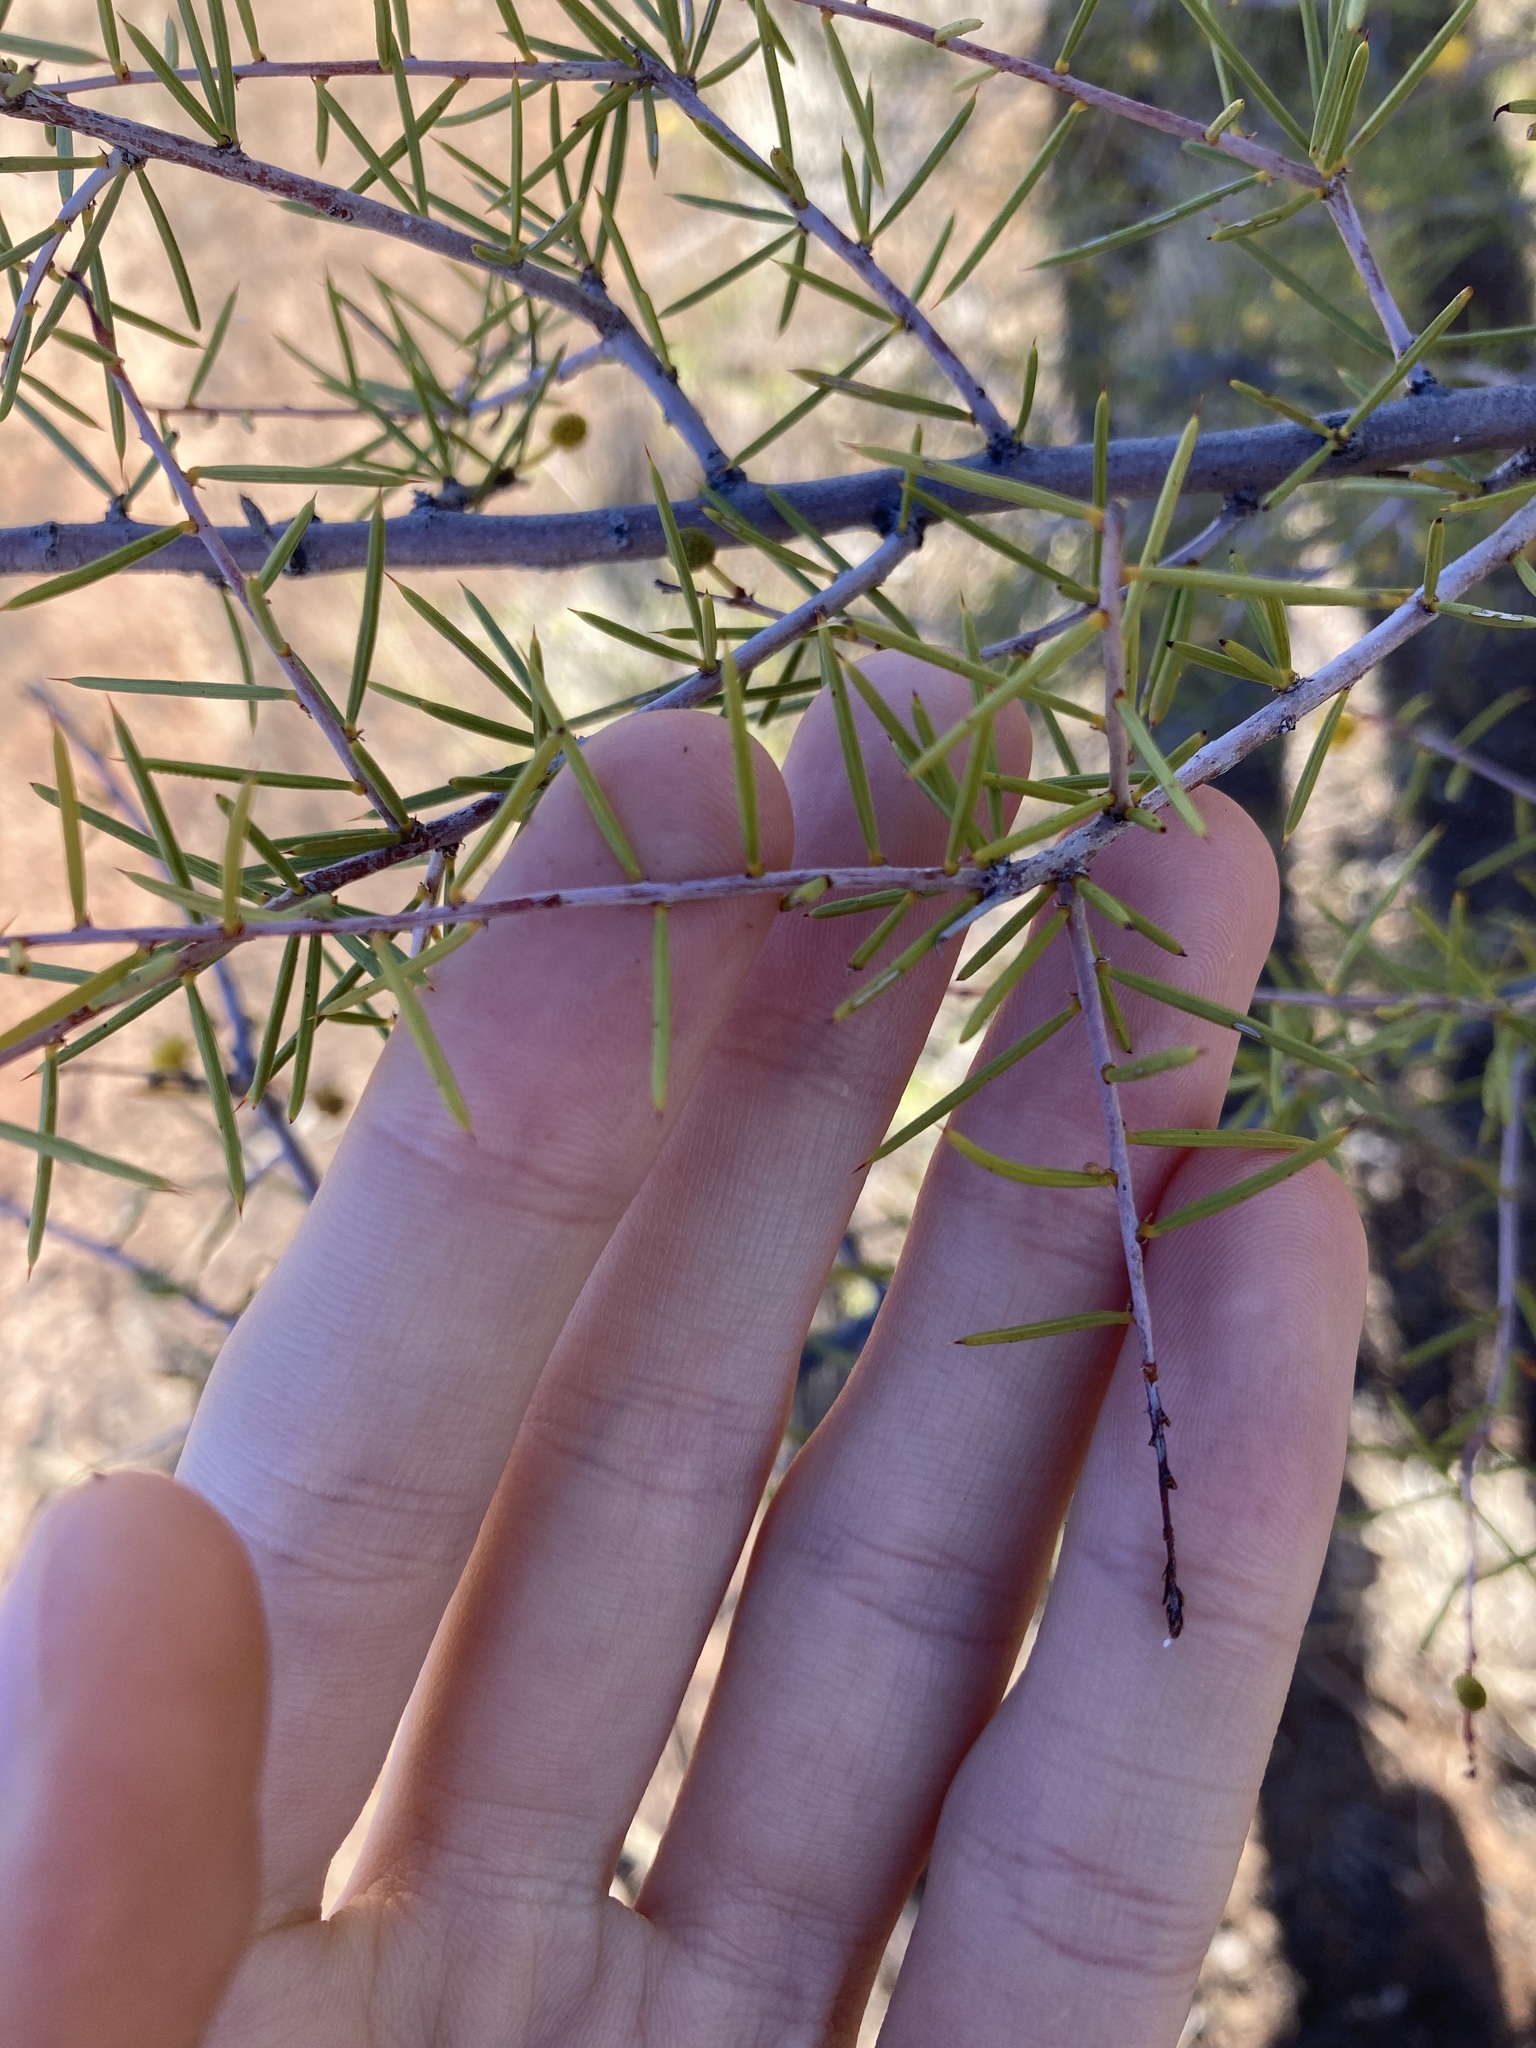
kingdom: Plantae
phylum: Tracheophyta
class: Magnoliopsida
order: Fabales
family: Fabaceae
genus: Acacia
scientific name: Acacia tetragonophylla
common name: Dead finish
